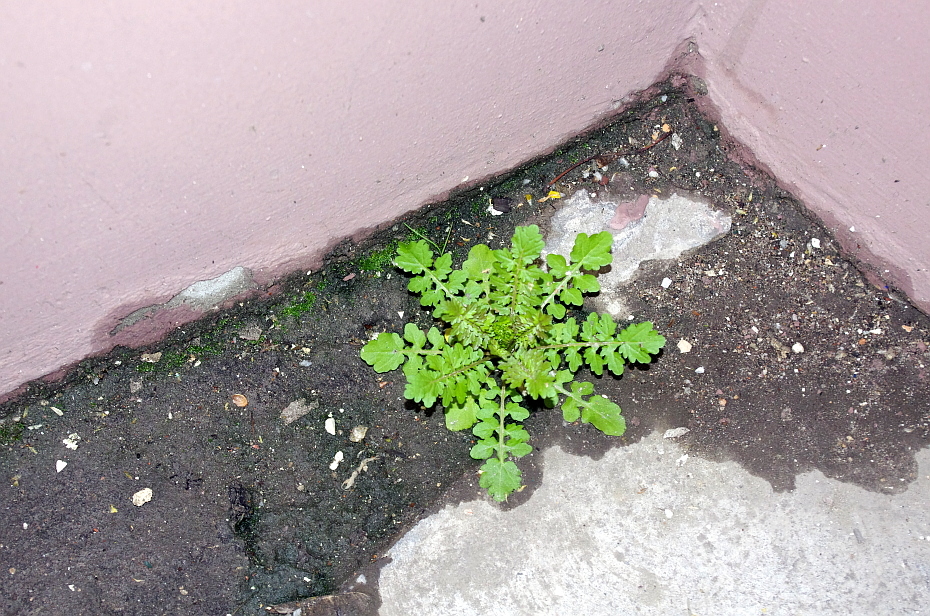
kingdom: Plantae
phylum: Tracheophyta
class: Magnoliopsida
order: Brassicales
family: Brassicaceae
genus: Rorippa
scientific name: Rorippa palustris
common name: Marsh yellow-cress
